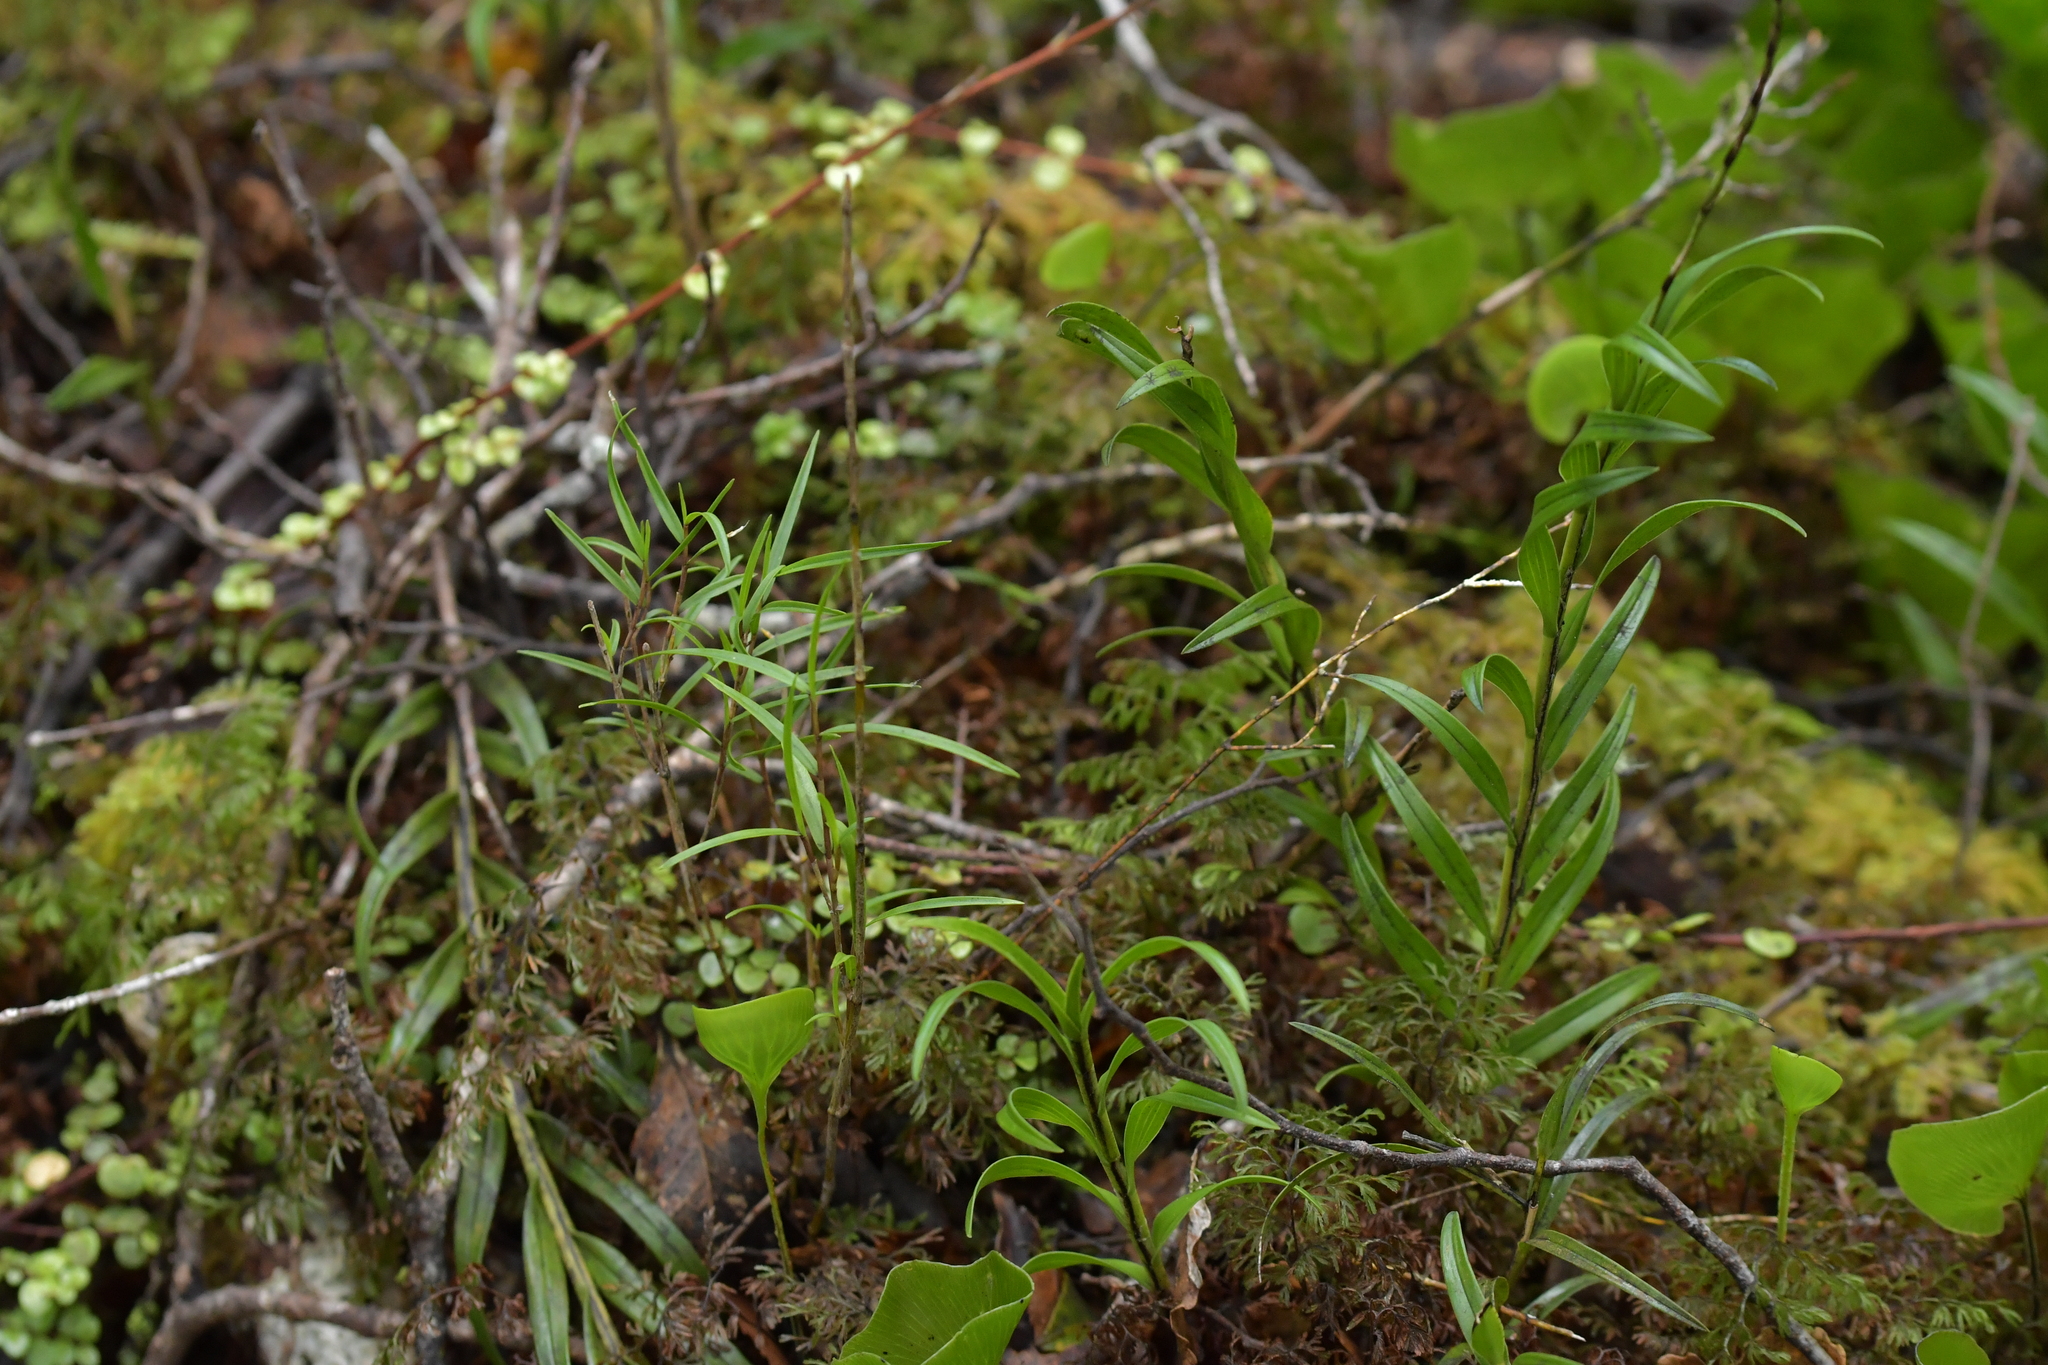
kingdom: Plantae
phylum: Tracheophyta
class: Liliopsida
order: Asparagales
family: Orchidaceae
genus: Dendrobium
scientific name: Dendrobium cunninghamii
